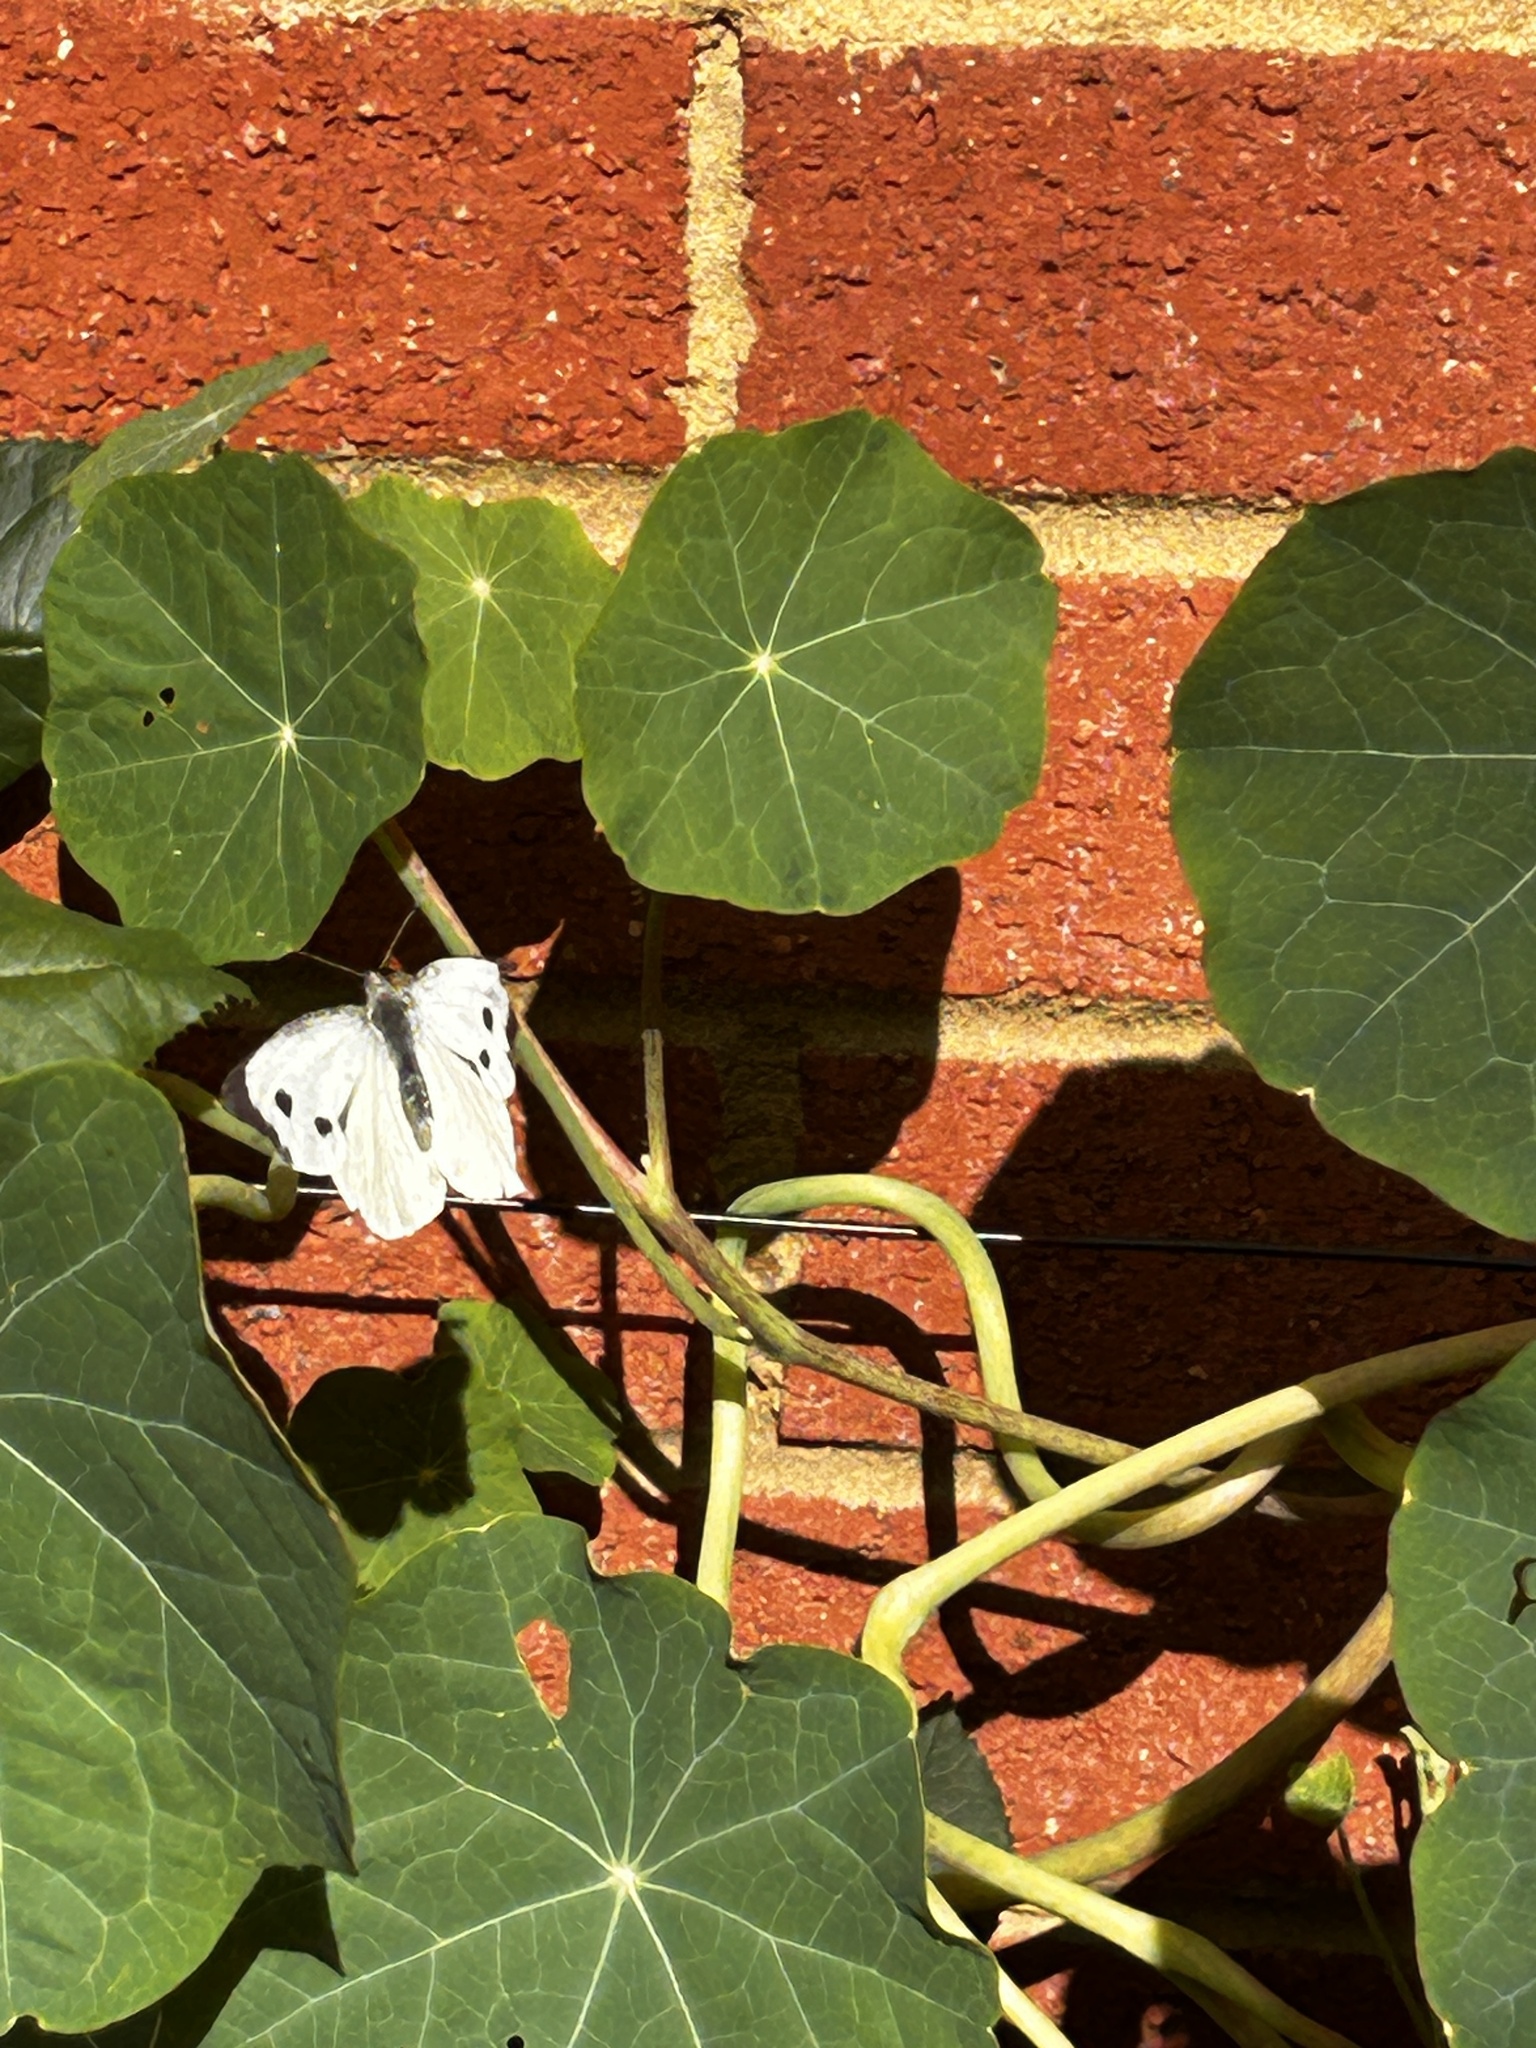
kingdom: Animalia
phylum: Arthropoda
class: Insecta
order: Lepidoptera
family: Pieridae
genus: Pieris
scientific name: Pieris brassicae
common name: Large white
